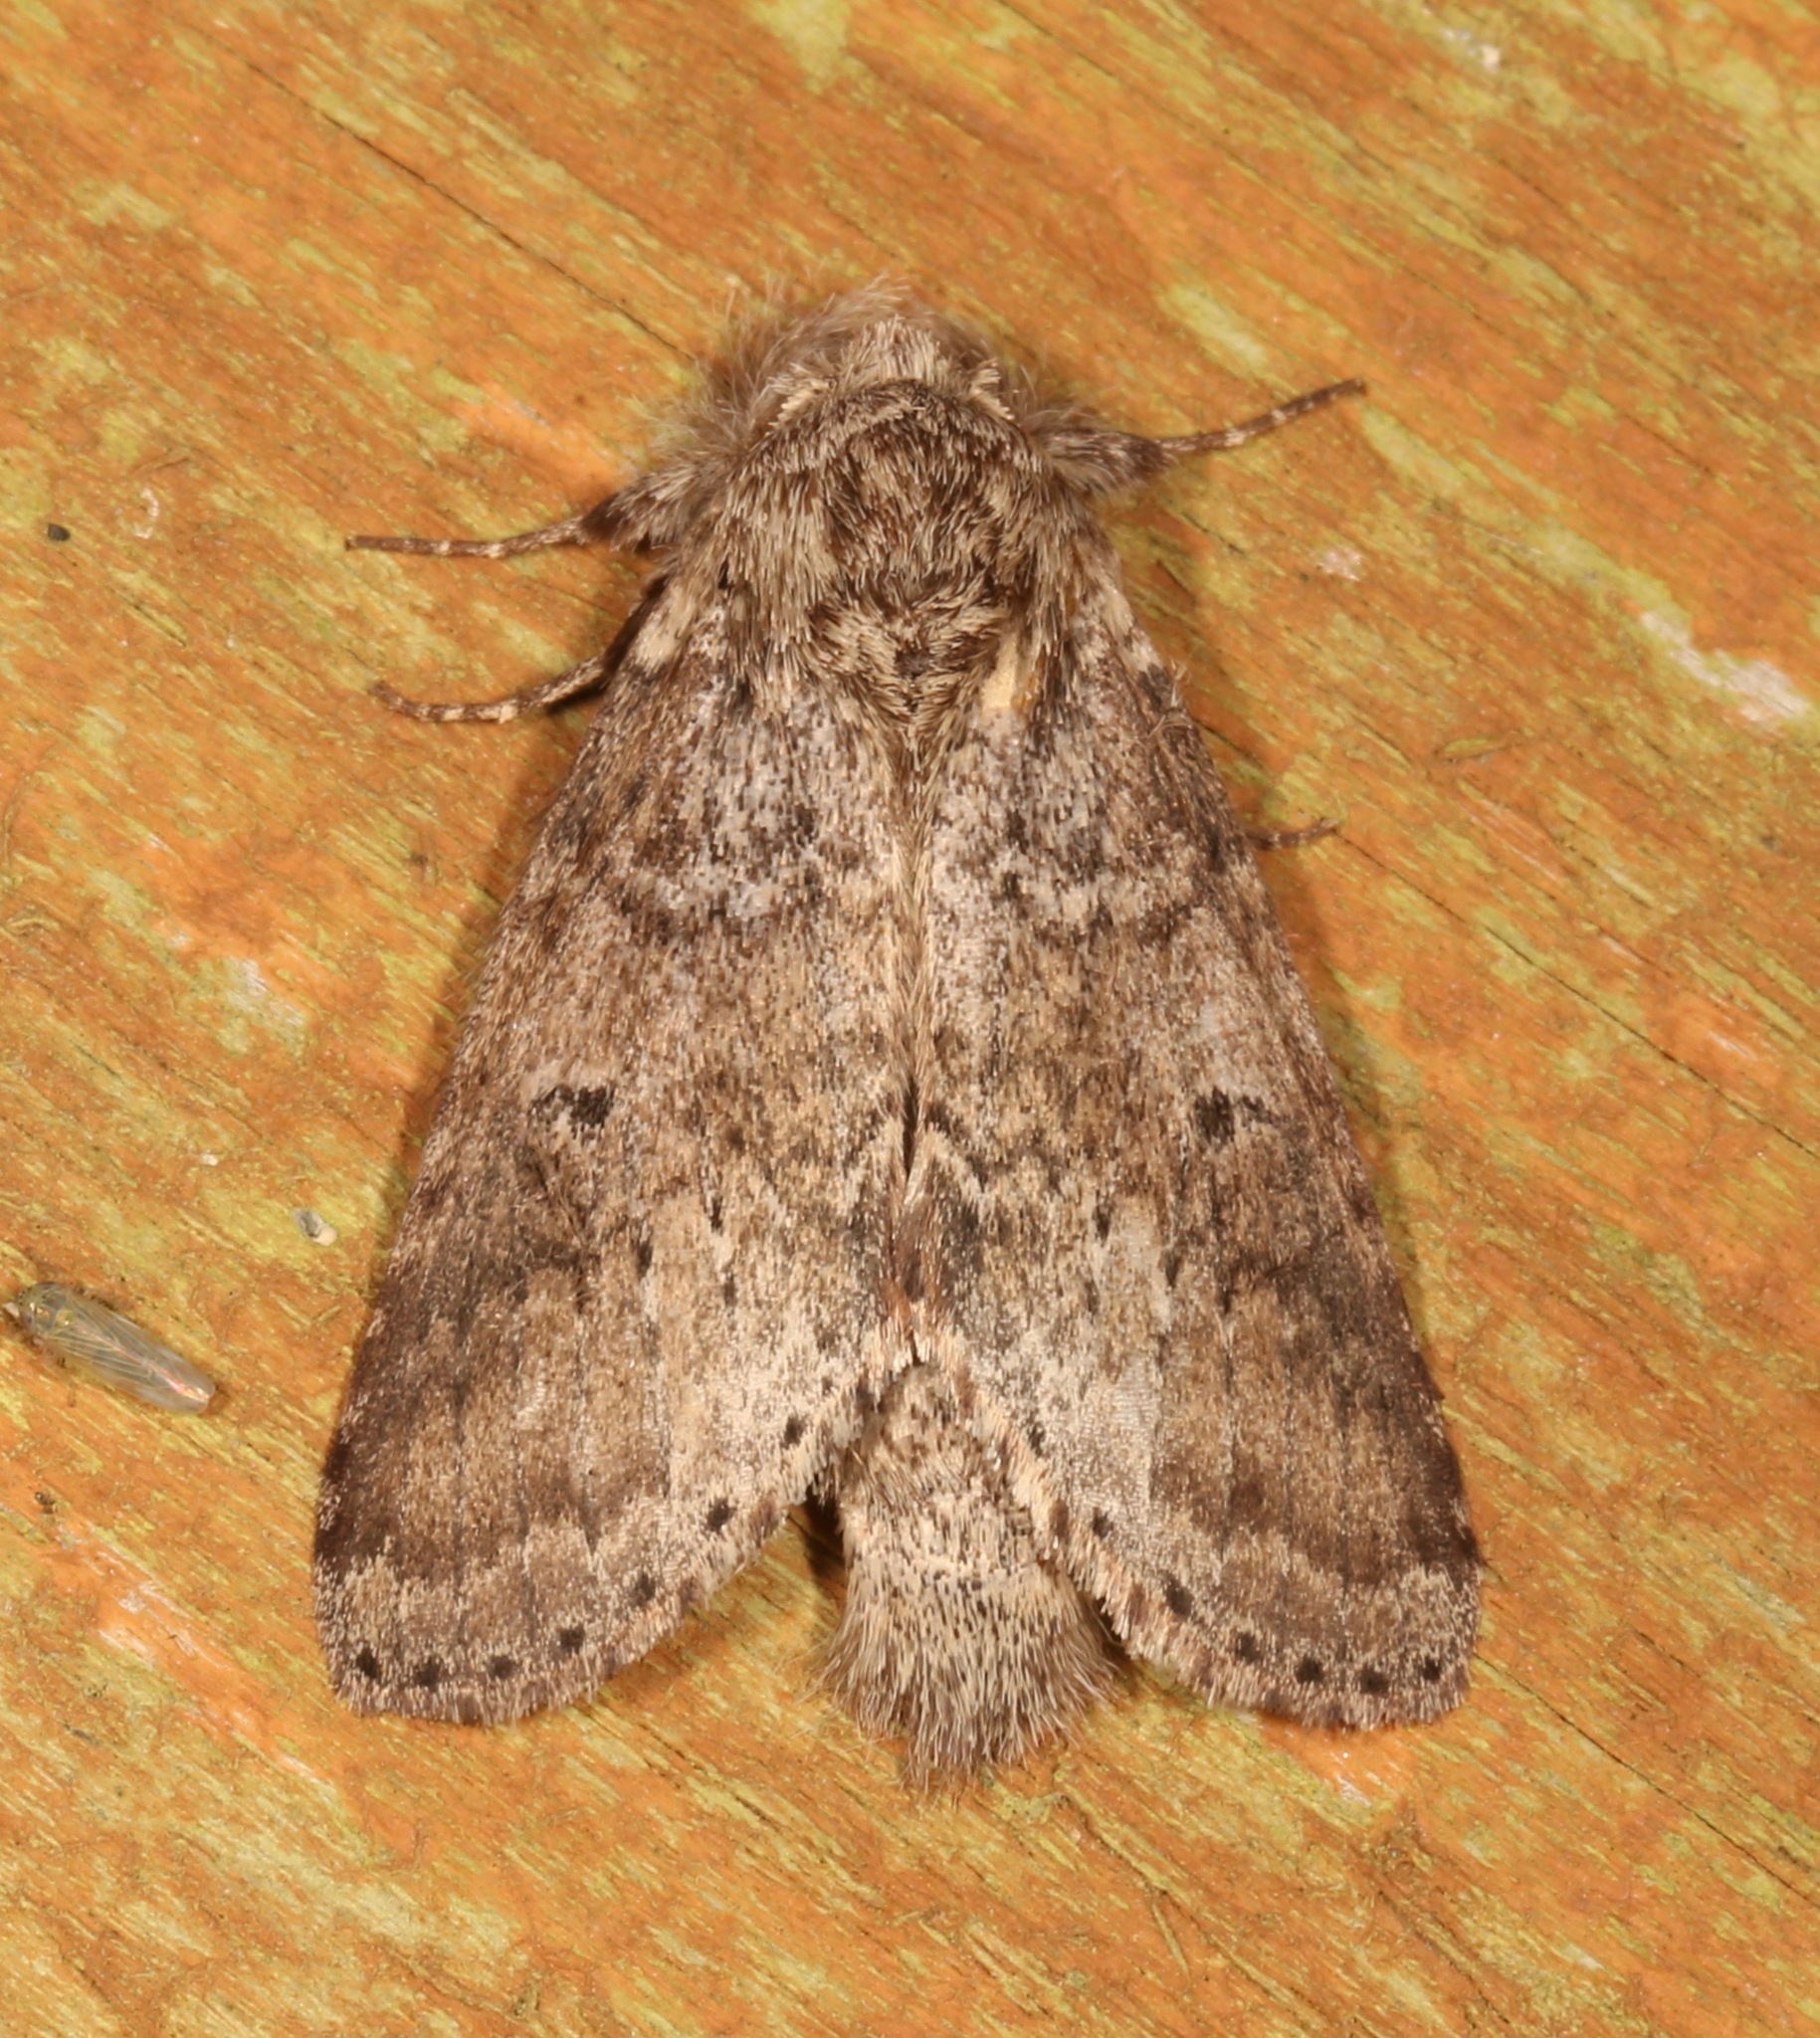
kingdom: Animalia
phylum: Arthropoda
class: Insecta
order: Lepidoptera
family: Notodontidae
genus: Lochmaeus
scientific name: Lochmaeus manteo
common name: Variable oakleaf caterpillar moth
